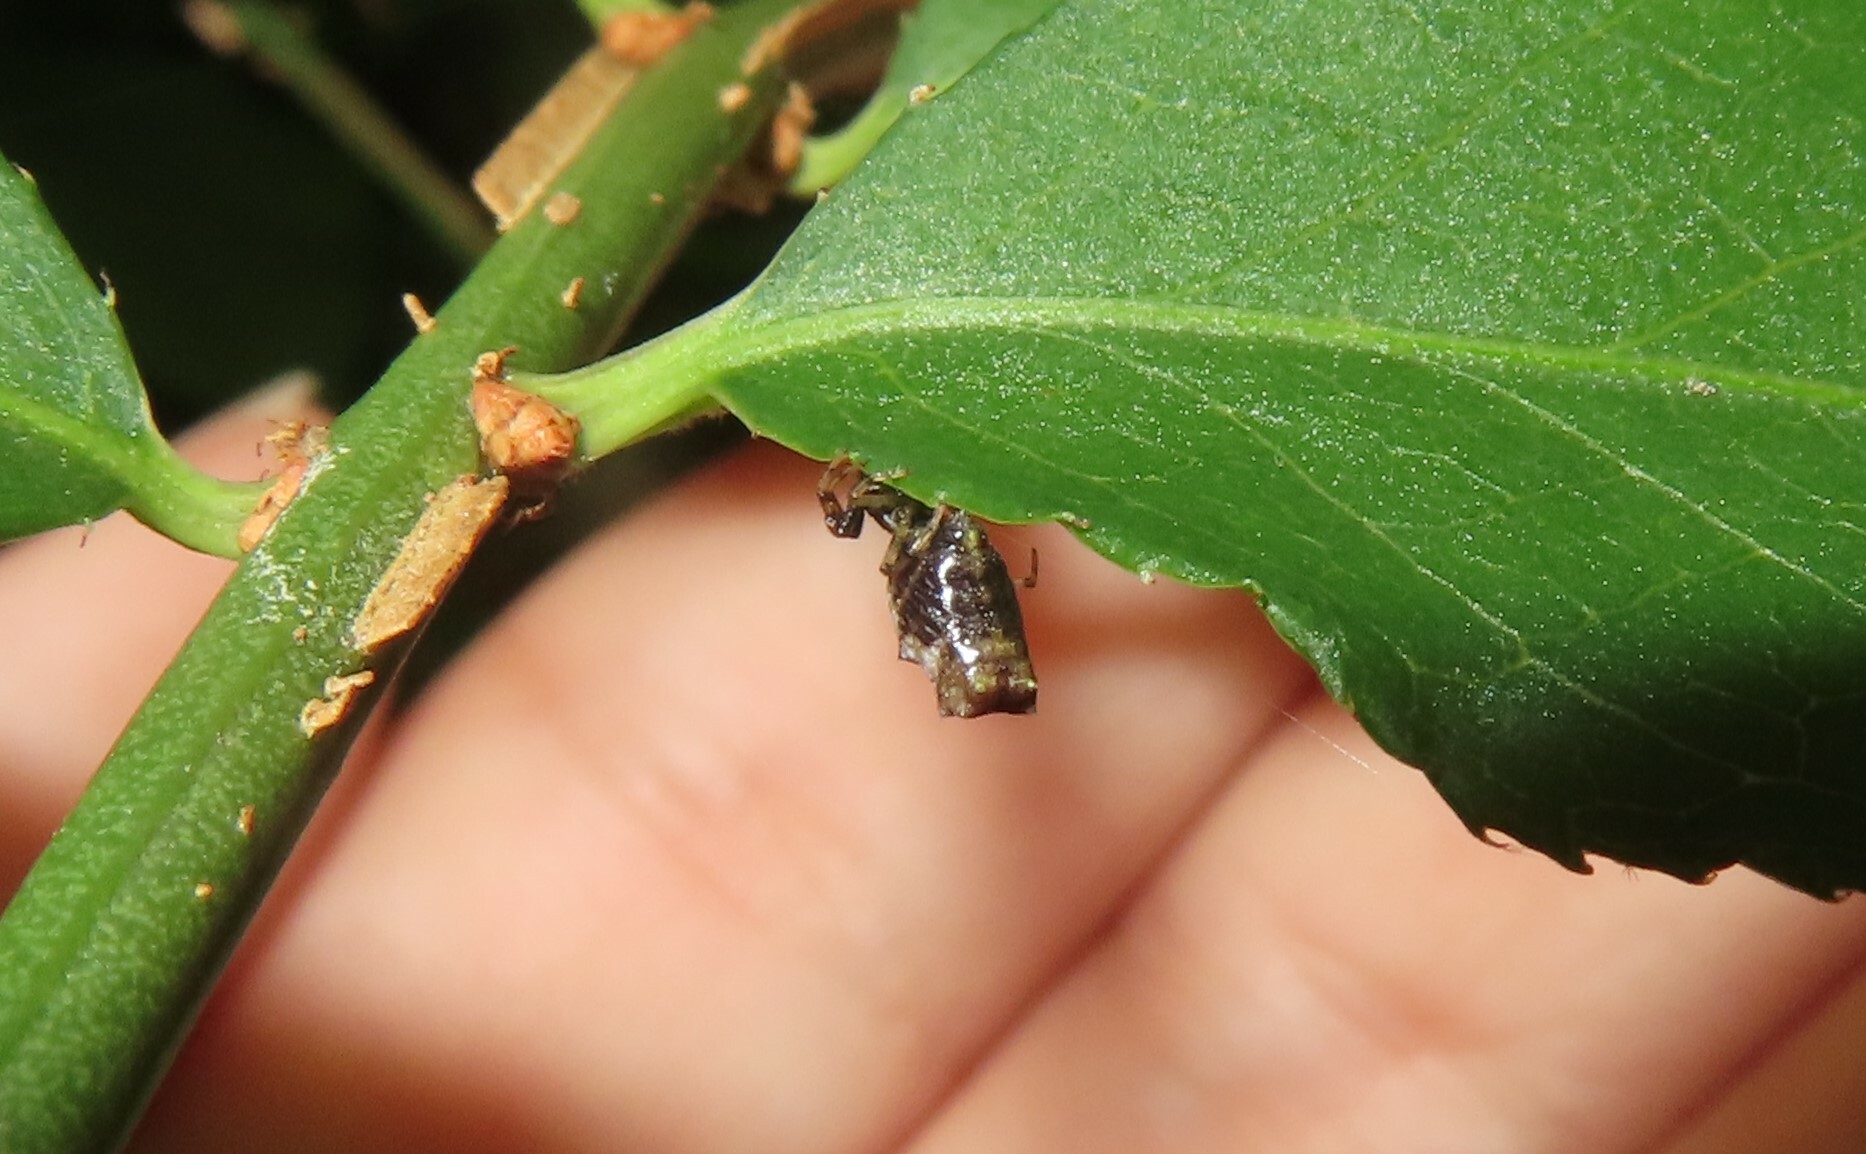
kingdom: Animalia
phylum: Arthropoda
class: Arachnida
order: Araneae
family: Araneidae
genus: Micrathena
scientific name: Micrathena gracilis
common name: Orb weavers
